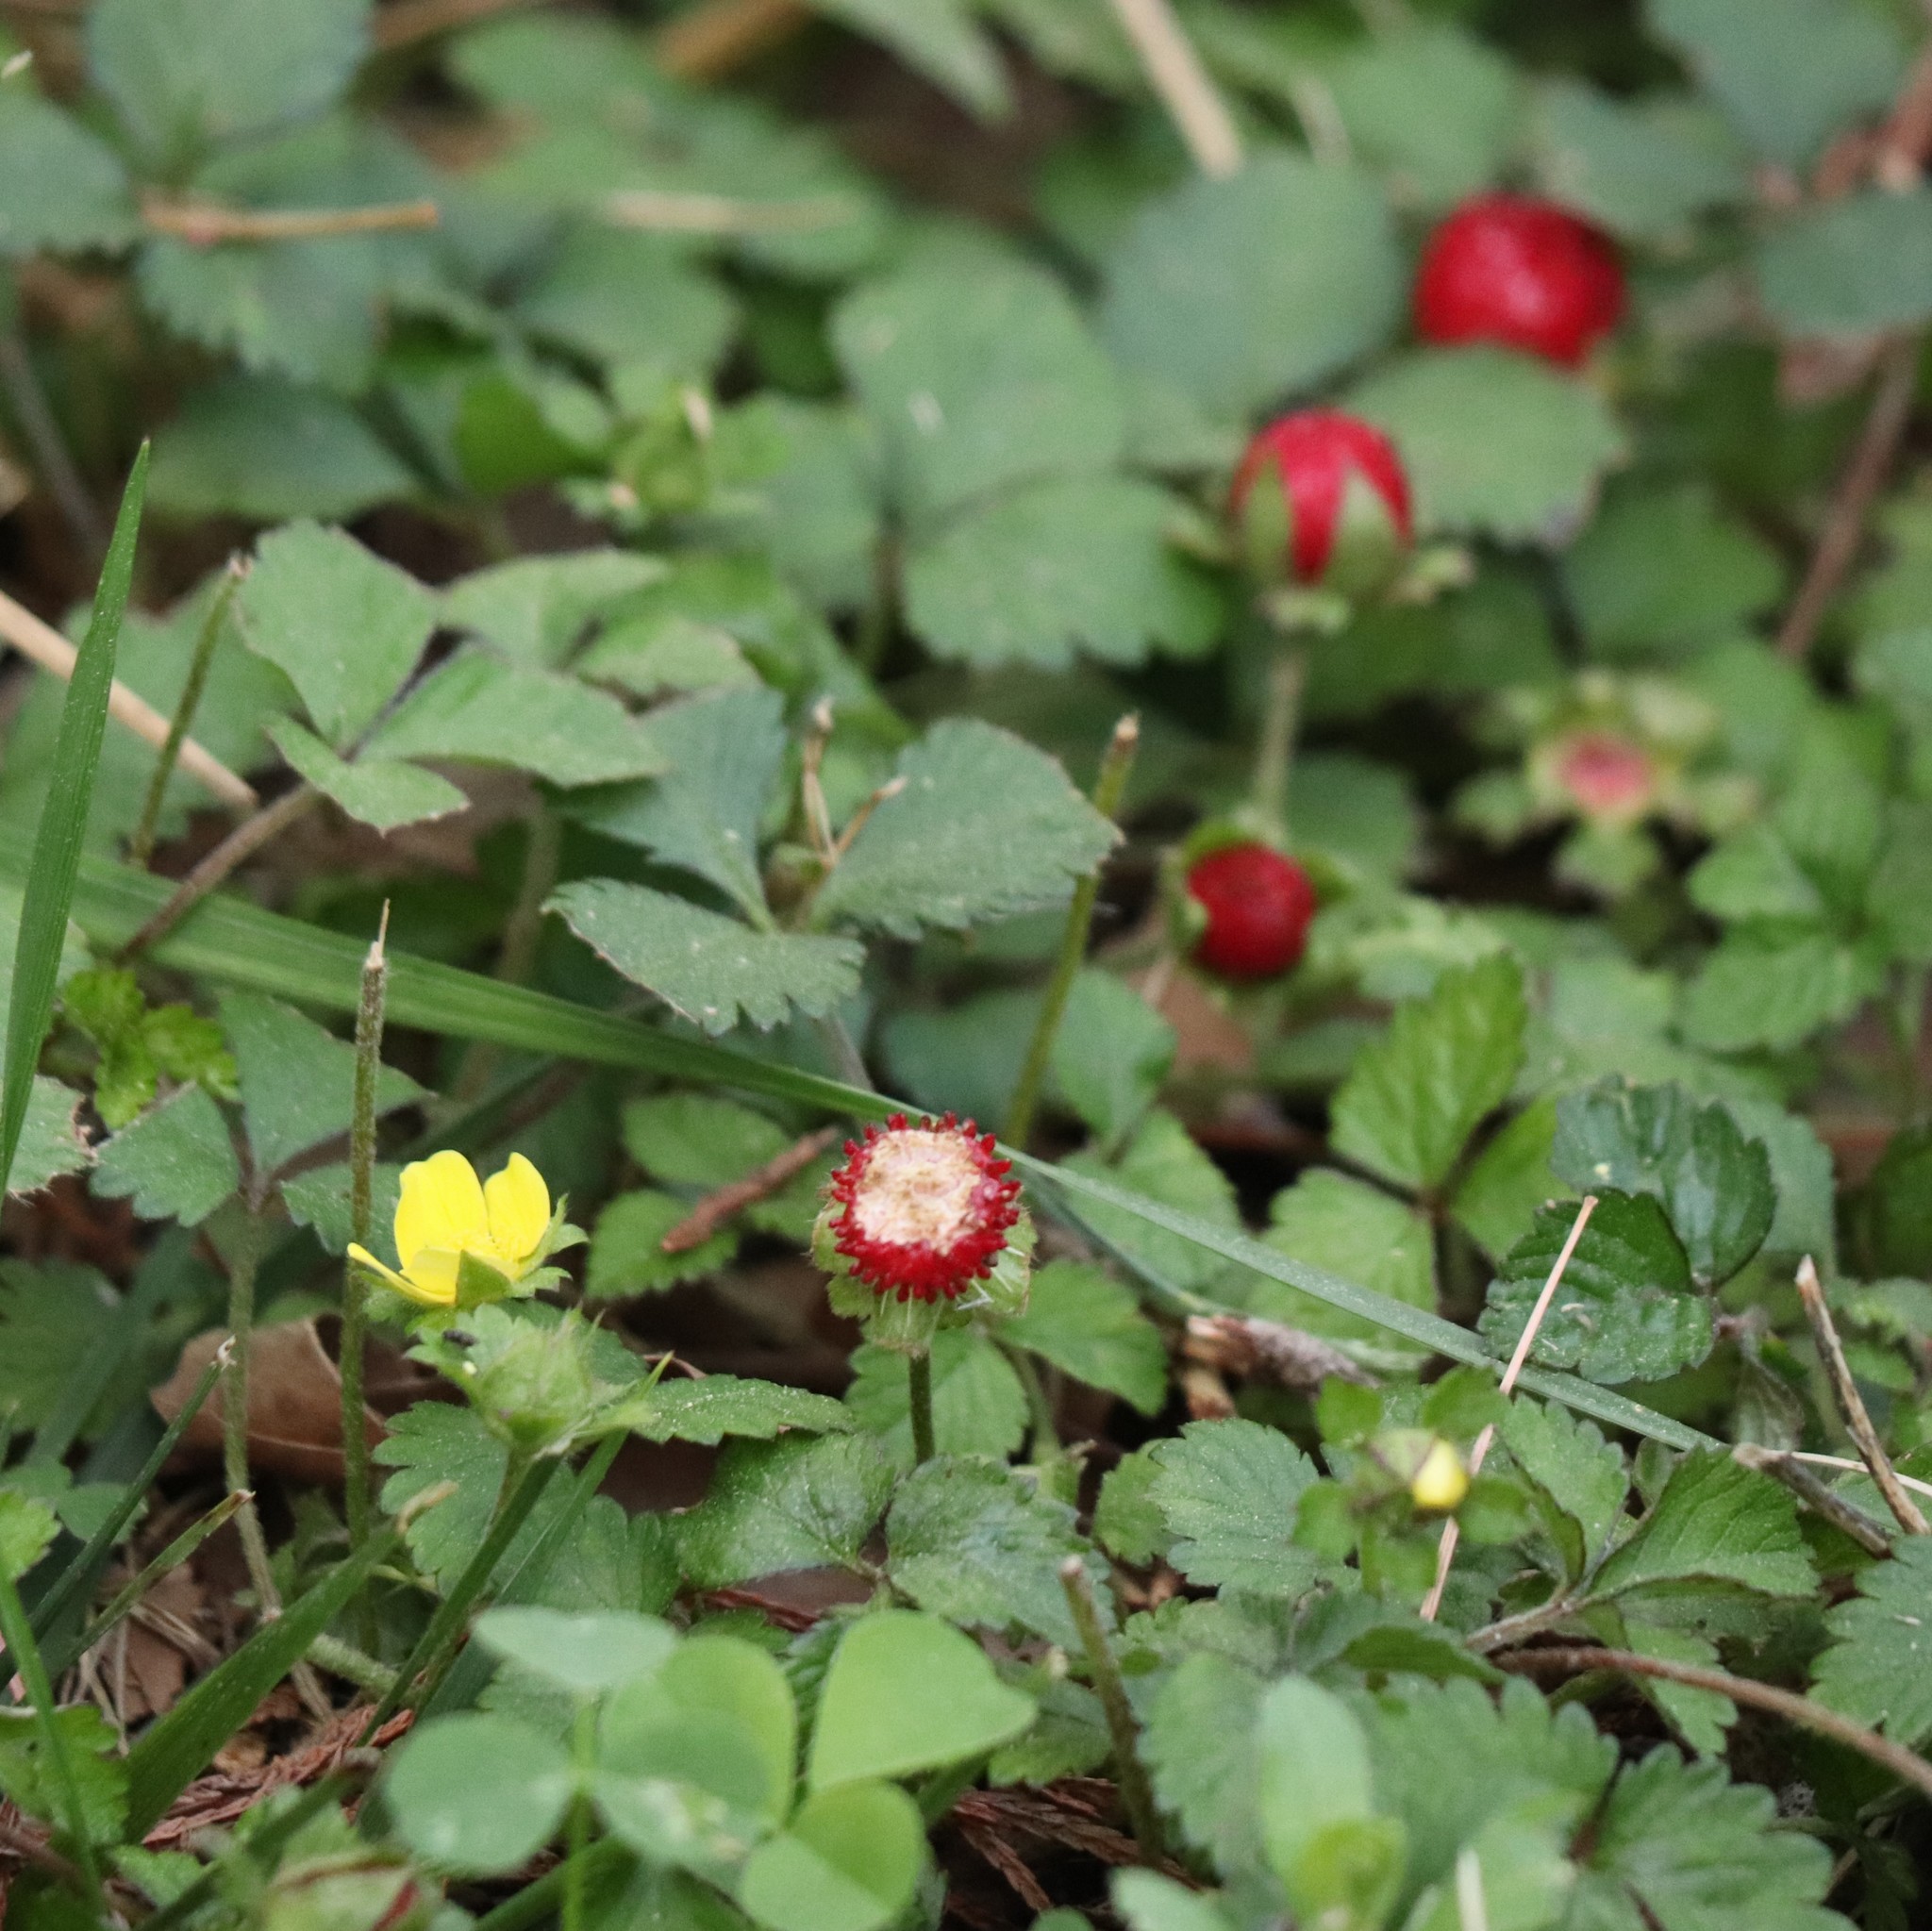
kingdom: Plantae
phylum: Tracheophyta
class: Magnoliopsida
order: Rosales
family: Rosaceae
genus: Potentilla
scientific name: Potentilla indica
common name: Yellow-flowered strawberry
